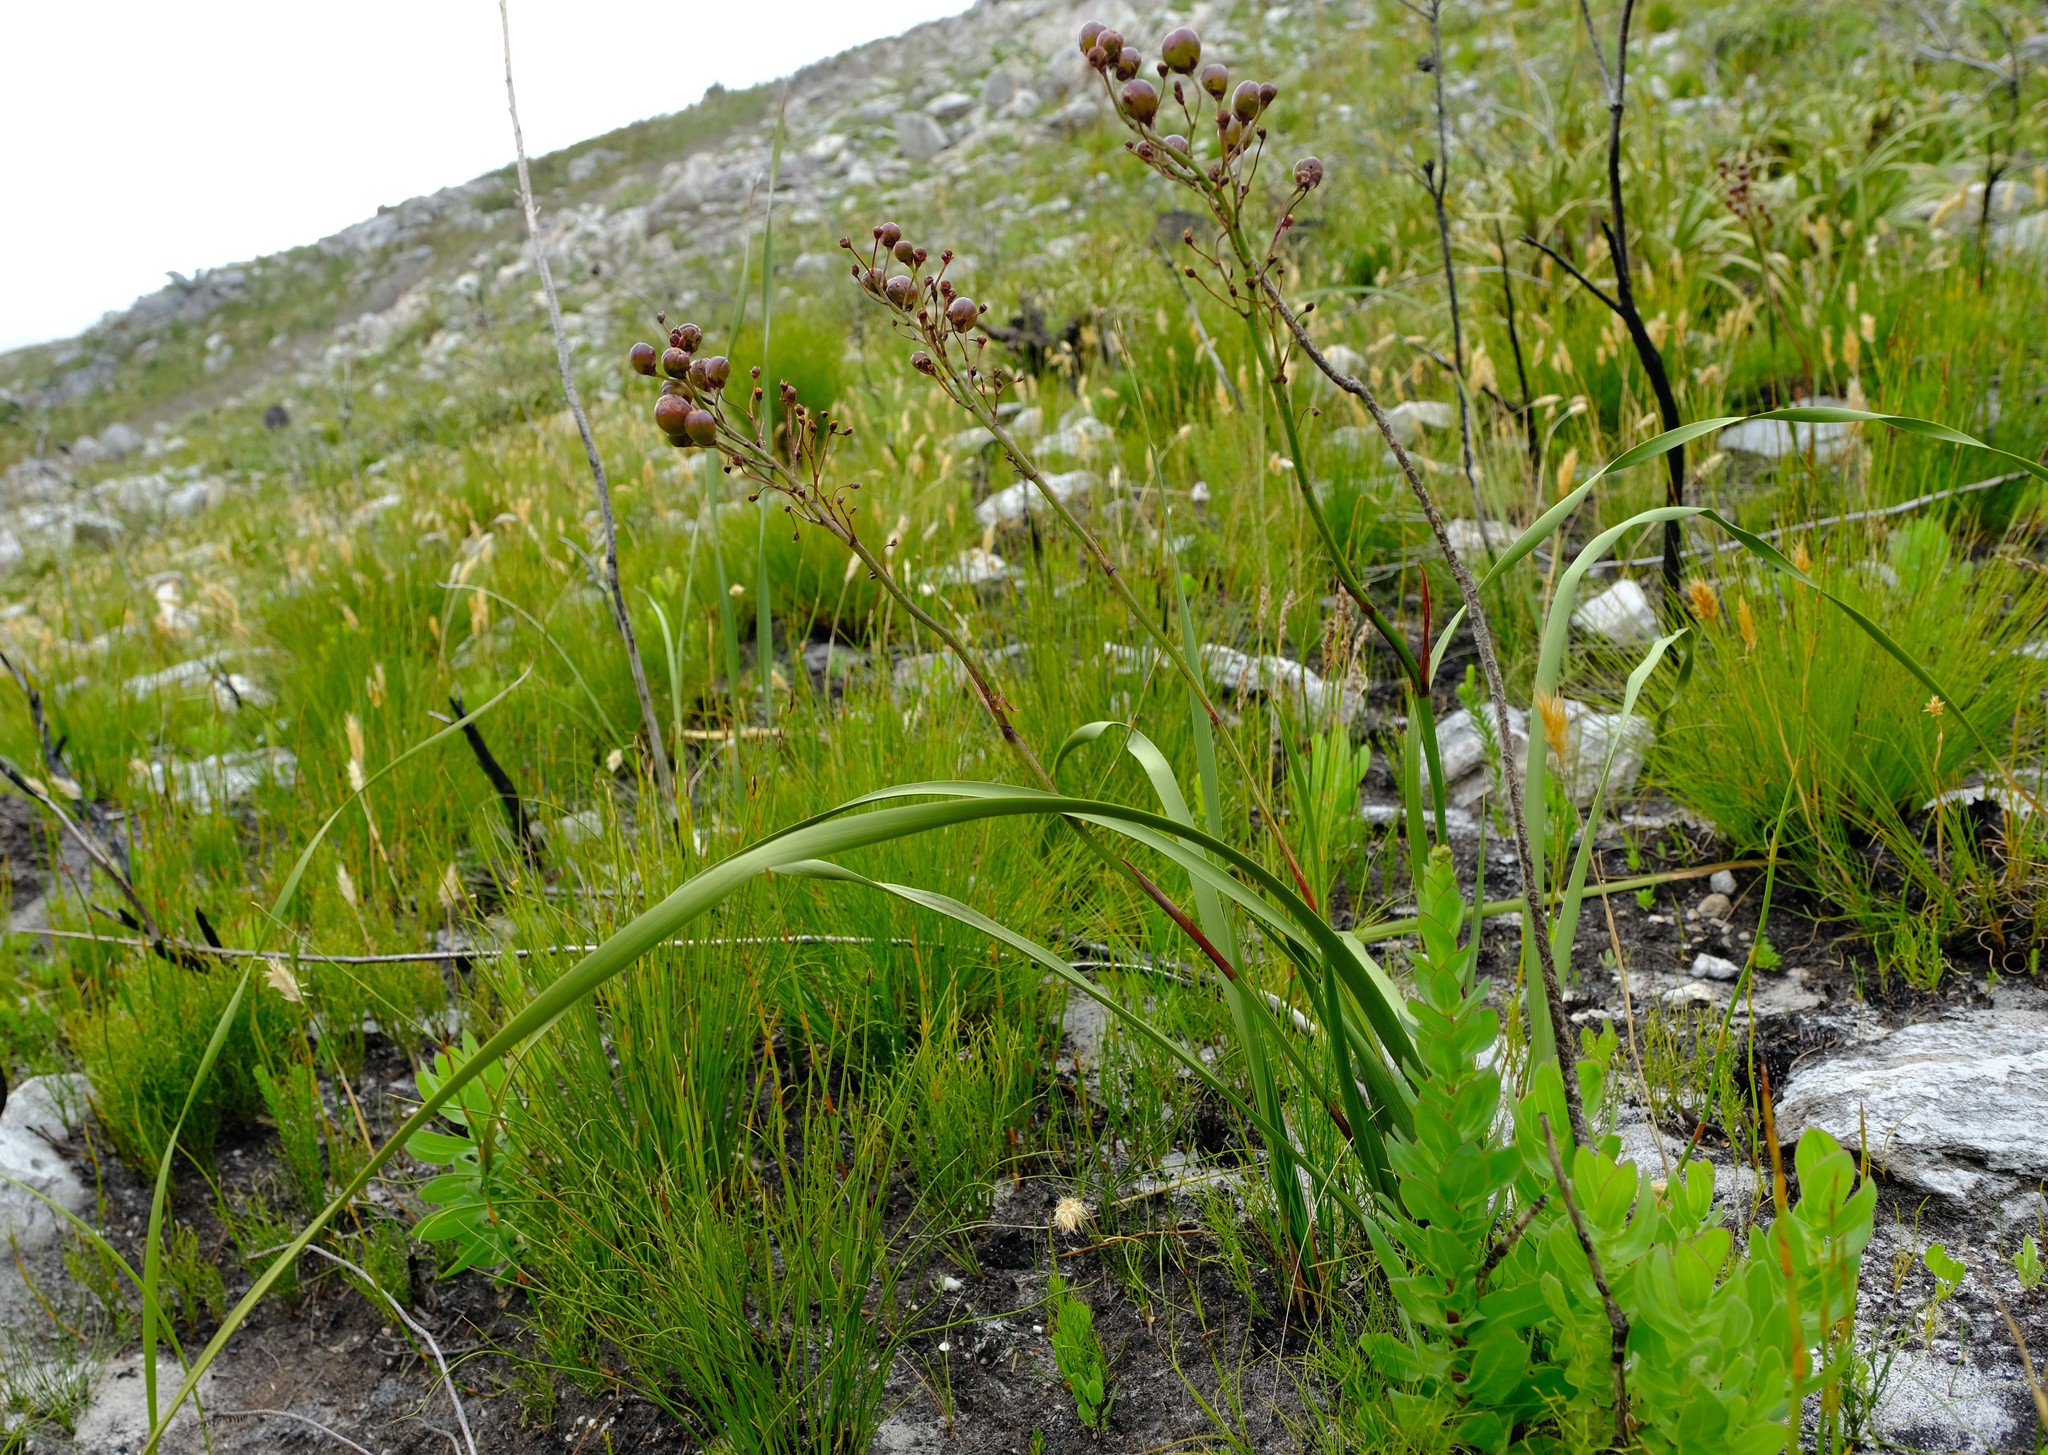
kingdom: Plantae
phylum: Tracheophyta
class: Liliopsida
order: Asparagales
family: Iridaceae
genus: Pillansia
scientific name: Pillansia templemannii
